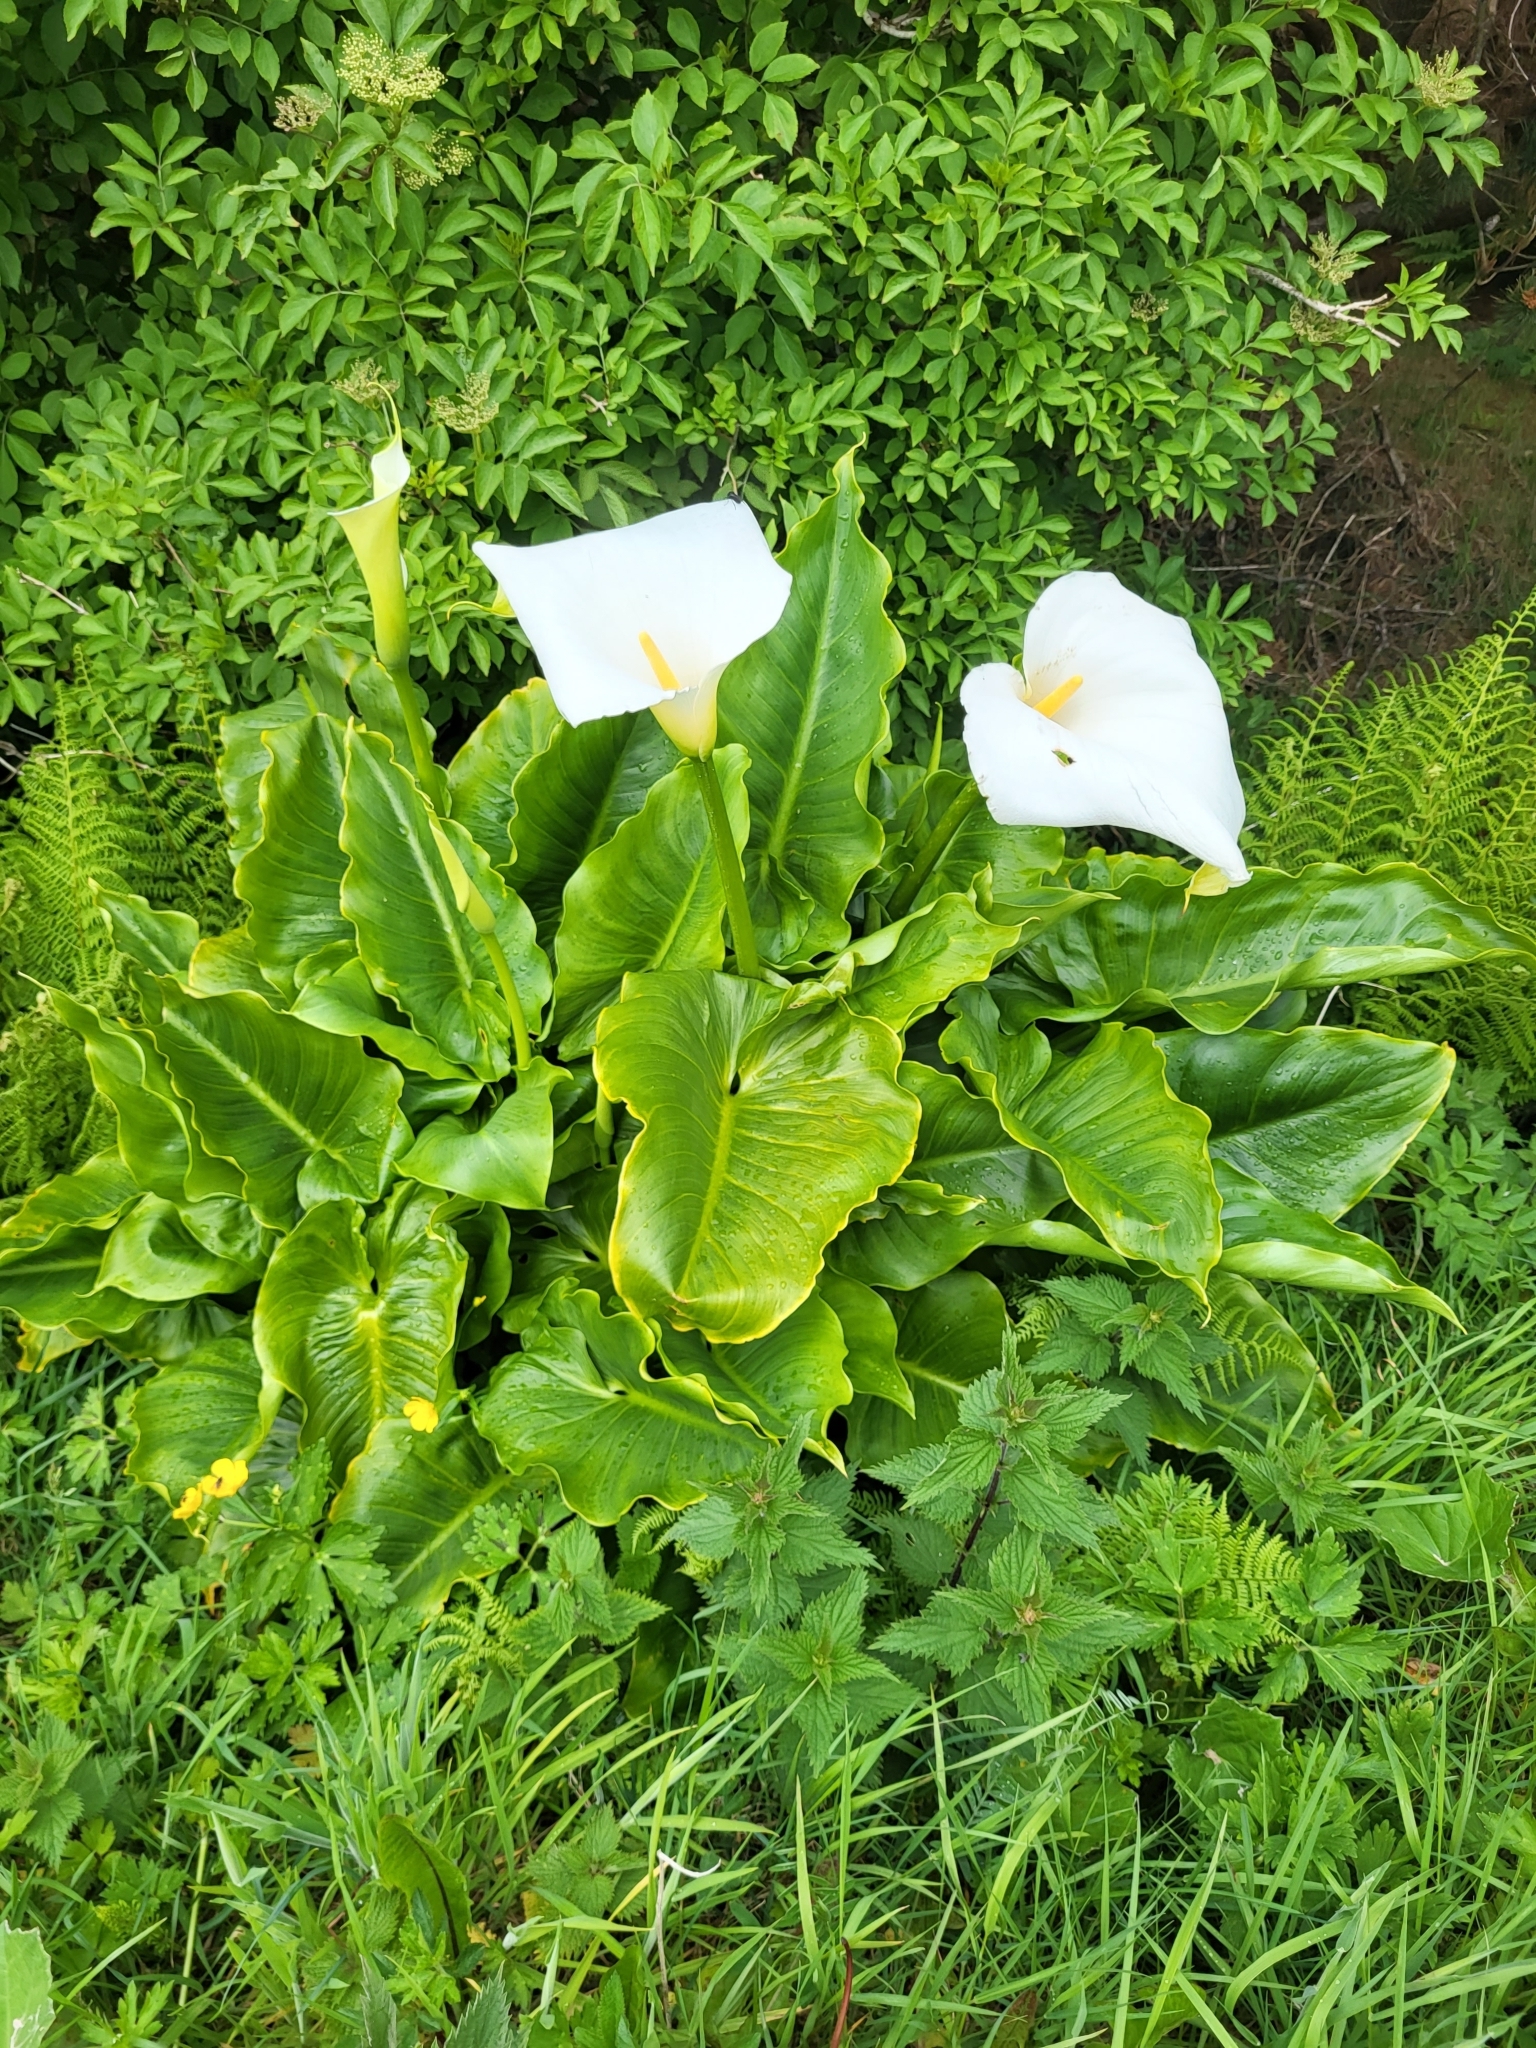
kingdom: Plantae
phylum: Tracheophyta
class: Liliopsida
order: Alismatales
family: Araceae
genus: Zantedeschia
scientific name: Zantedeschia aethiopica
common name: Altar-lily
